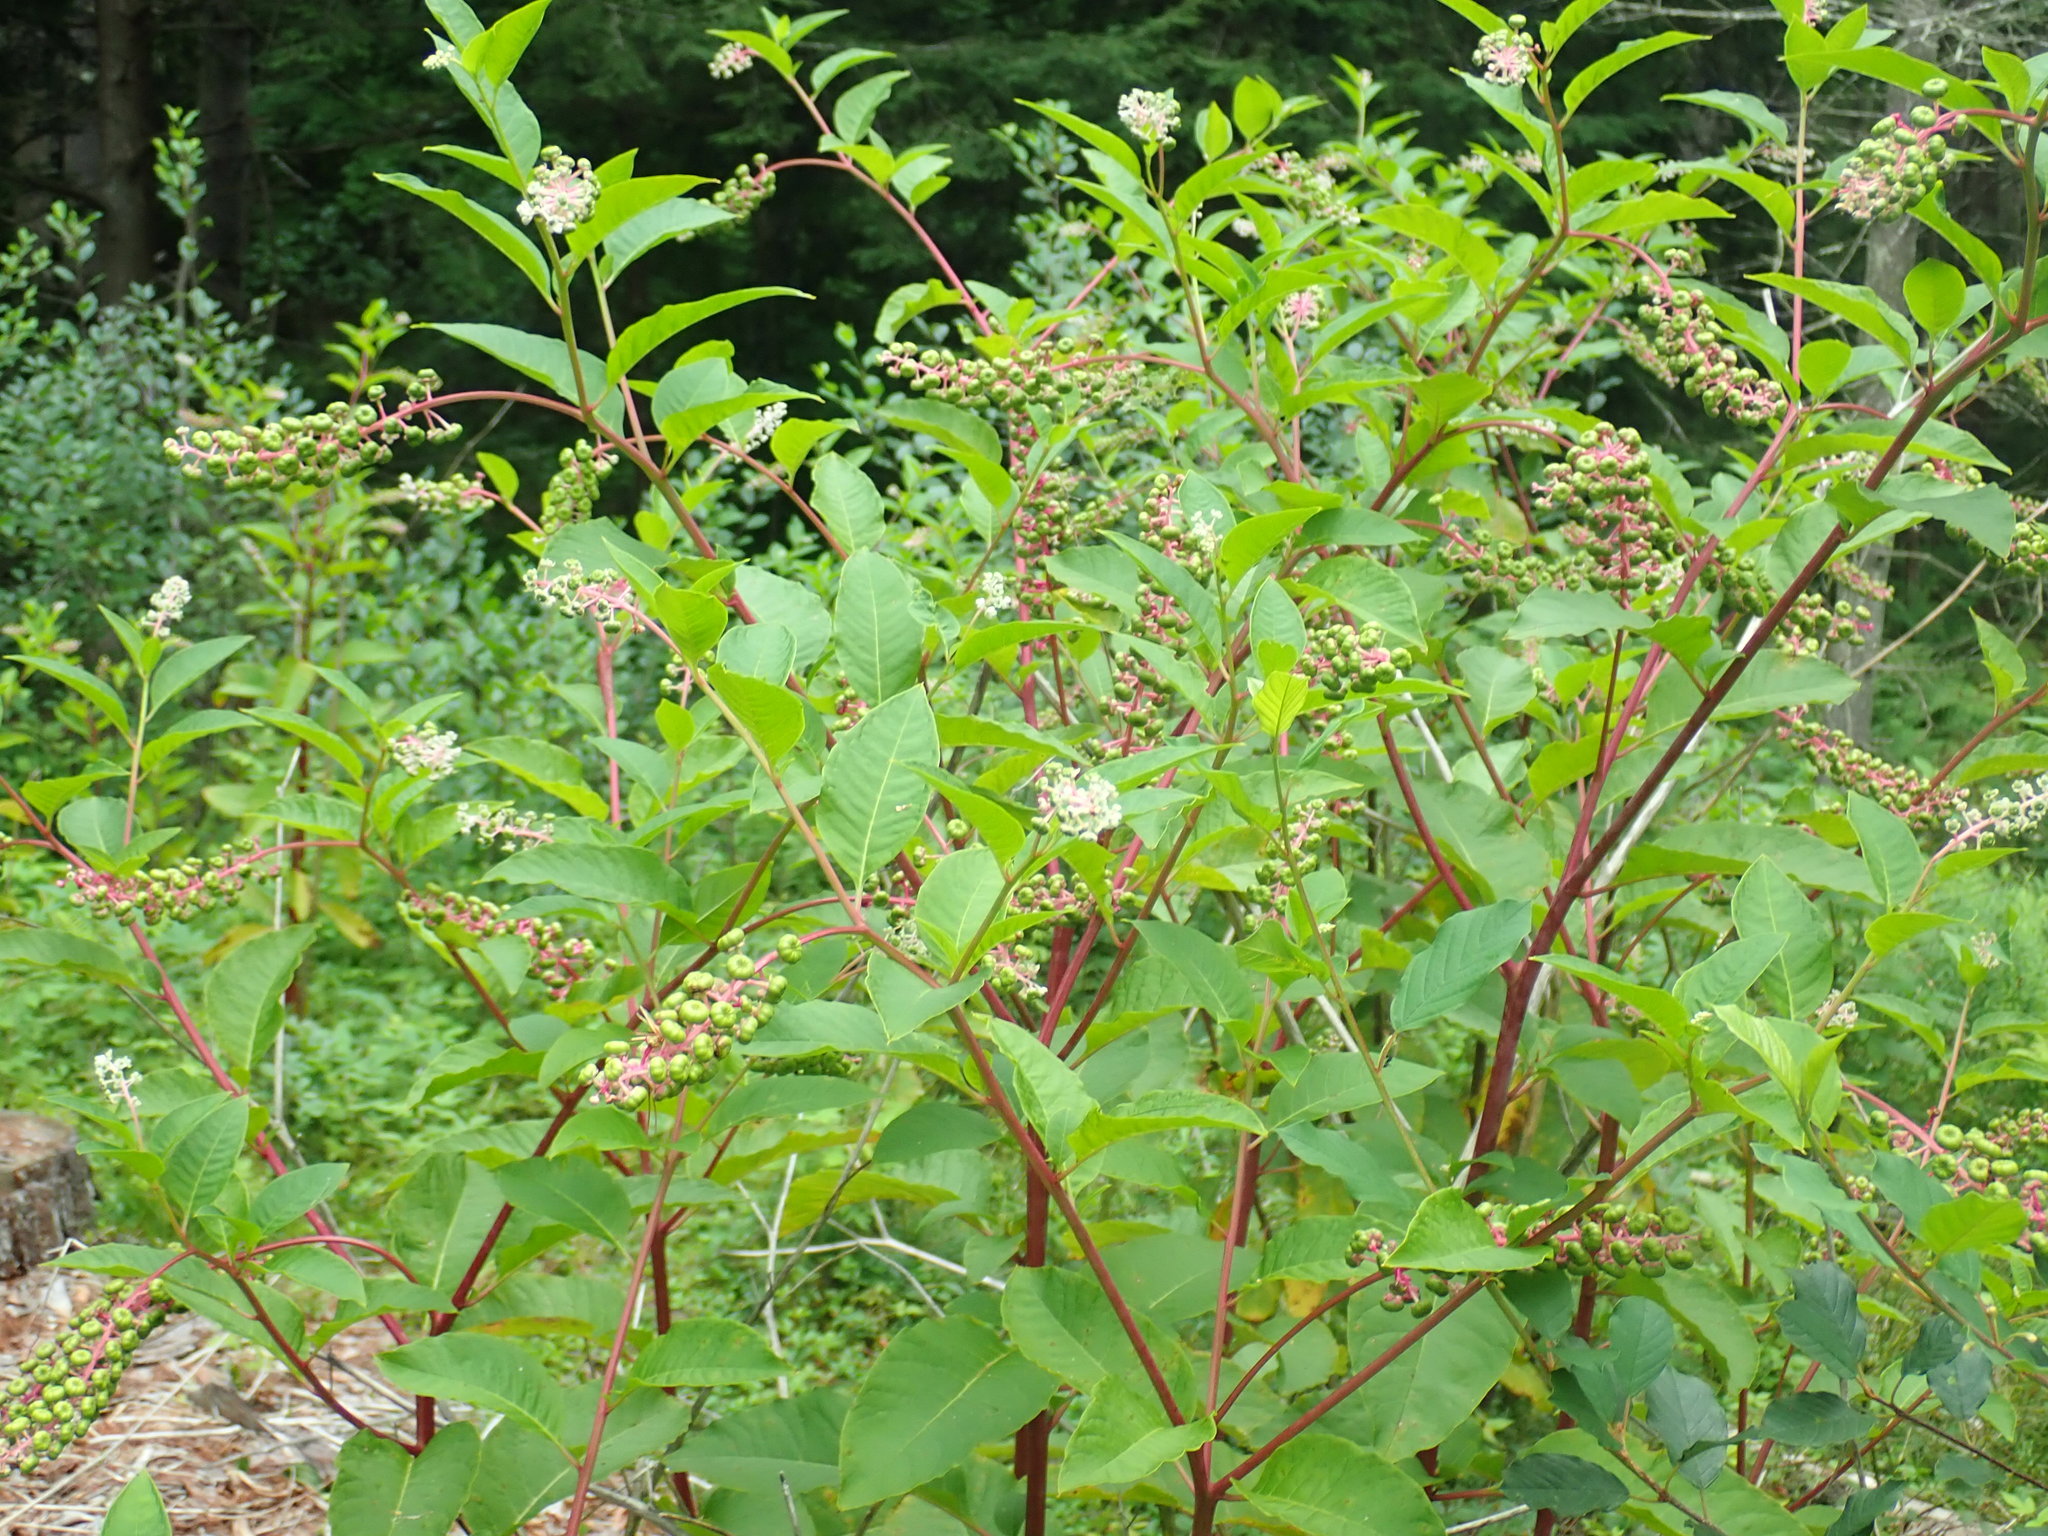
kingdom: Plantae
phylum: Tracheophyta
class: Magnoliopsida
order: Caryophyllales
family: Phytolaccaceae
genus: Phytolacca
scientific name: Phytolacca americana
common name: American pokeweed
